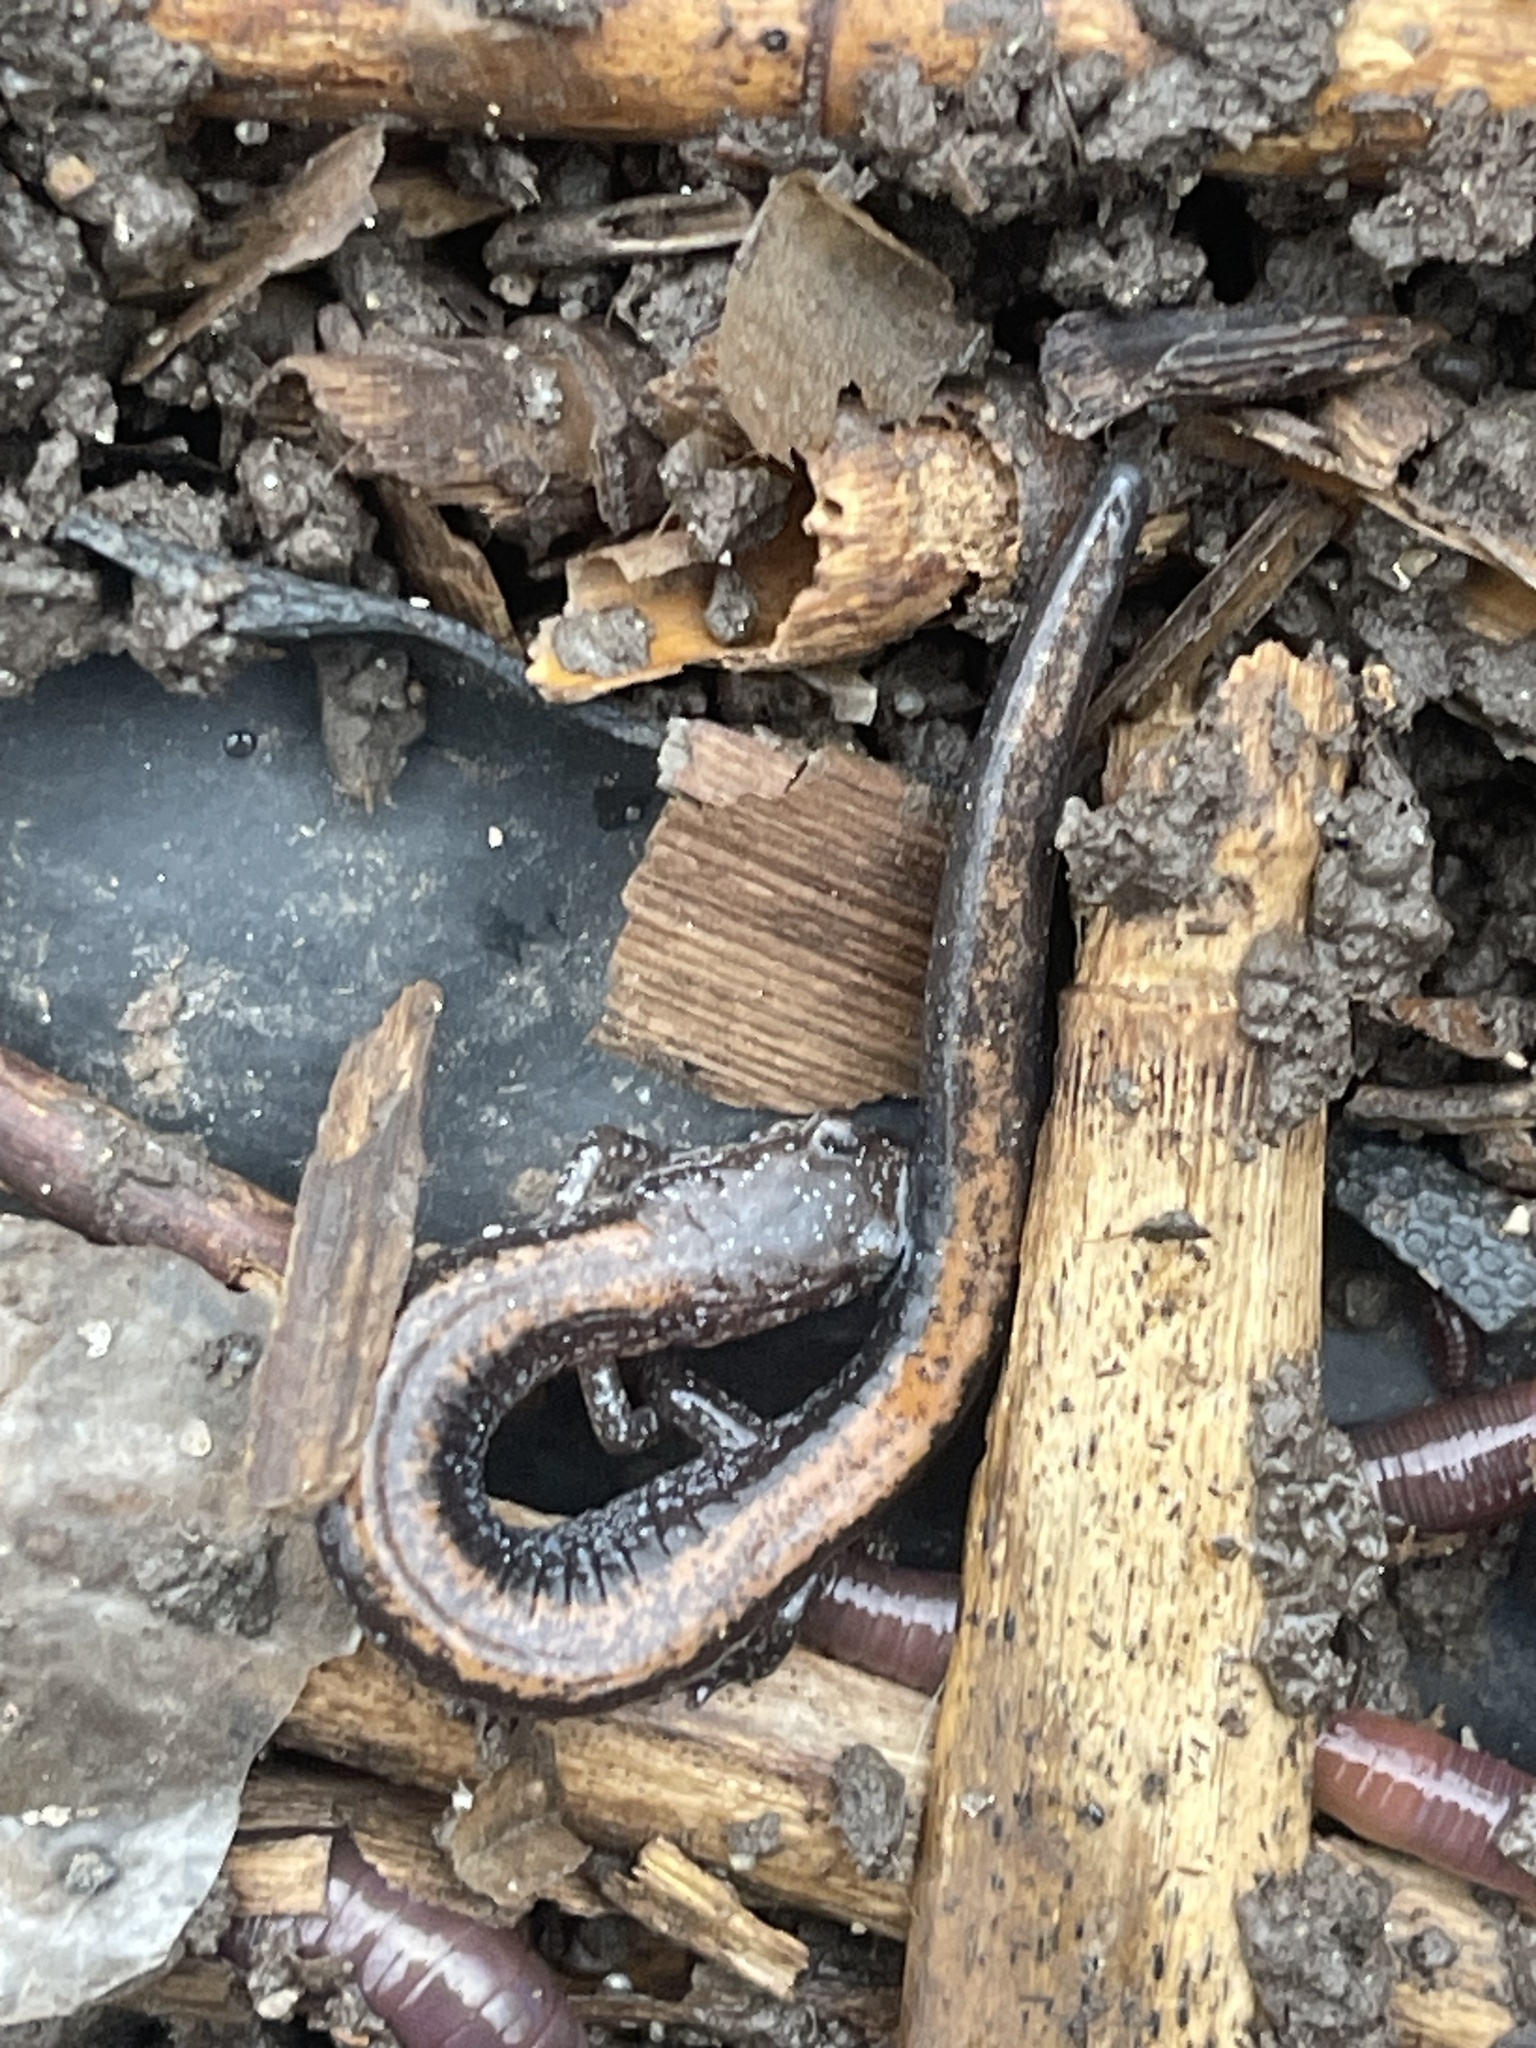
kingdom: Animalia
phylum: Chordata
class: Amphibia
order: Caudata
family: Plethodontidae
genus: Plethodon
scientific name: Plethodon cinereus
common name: Redback salamander
